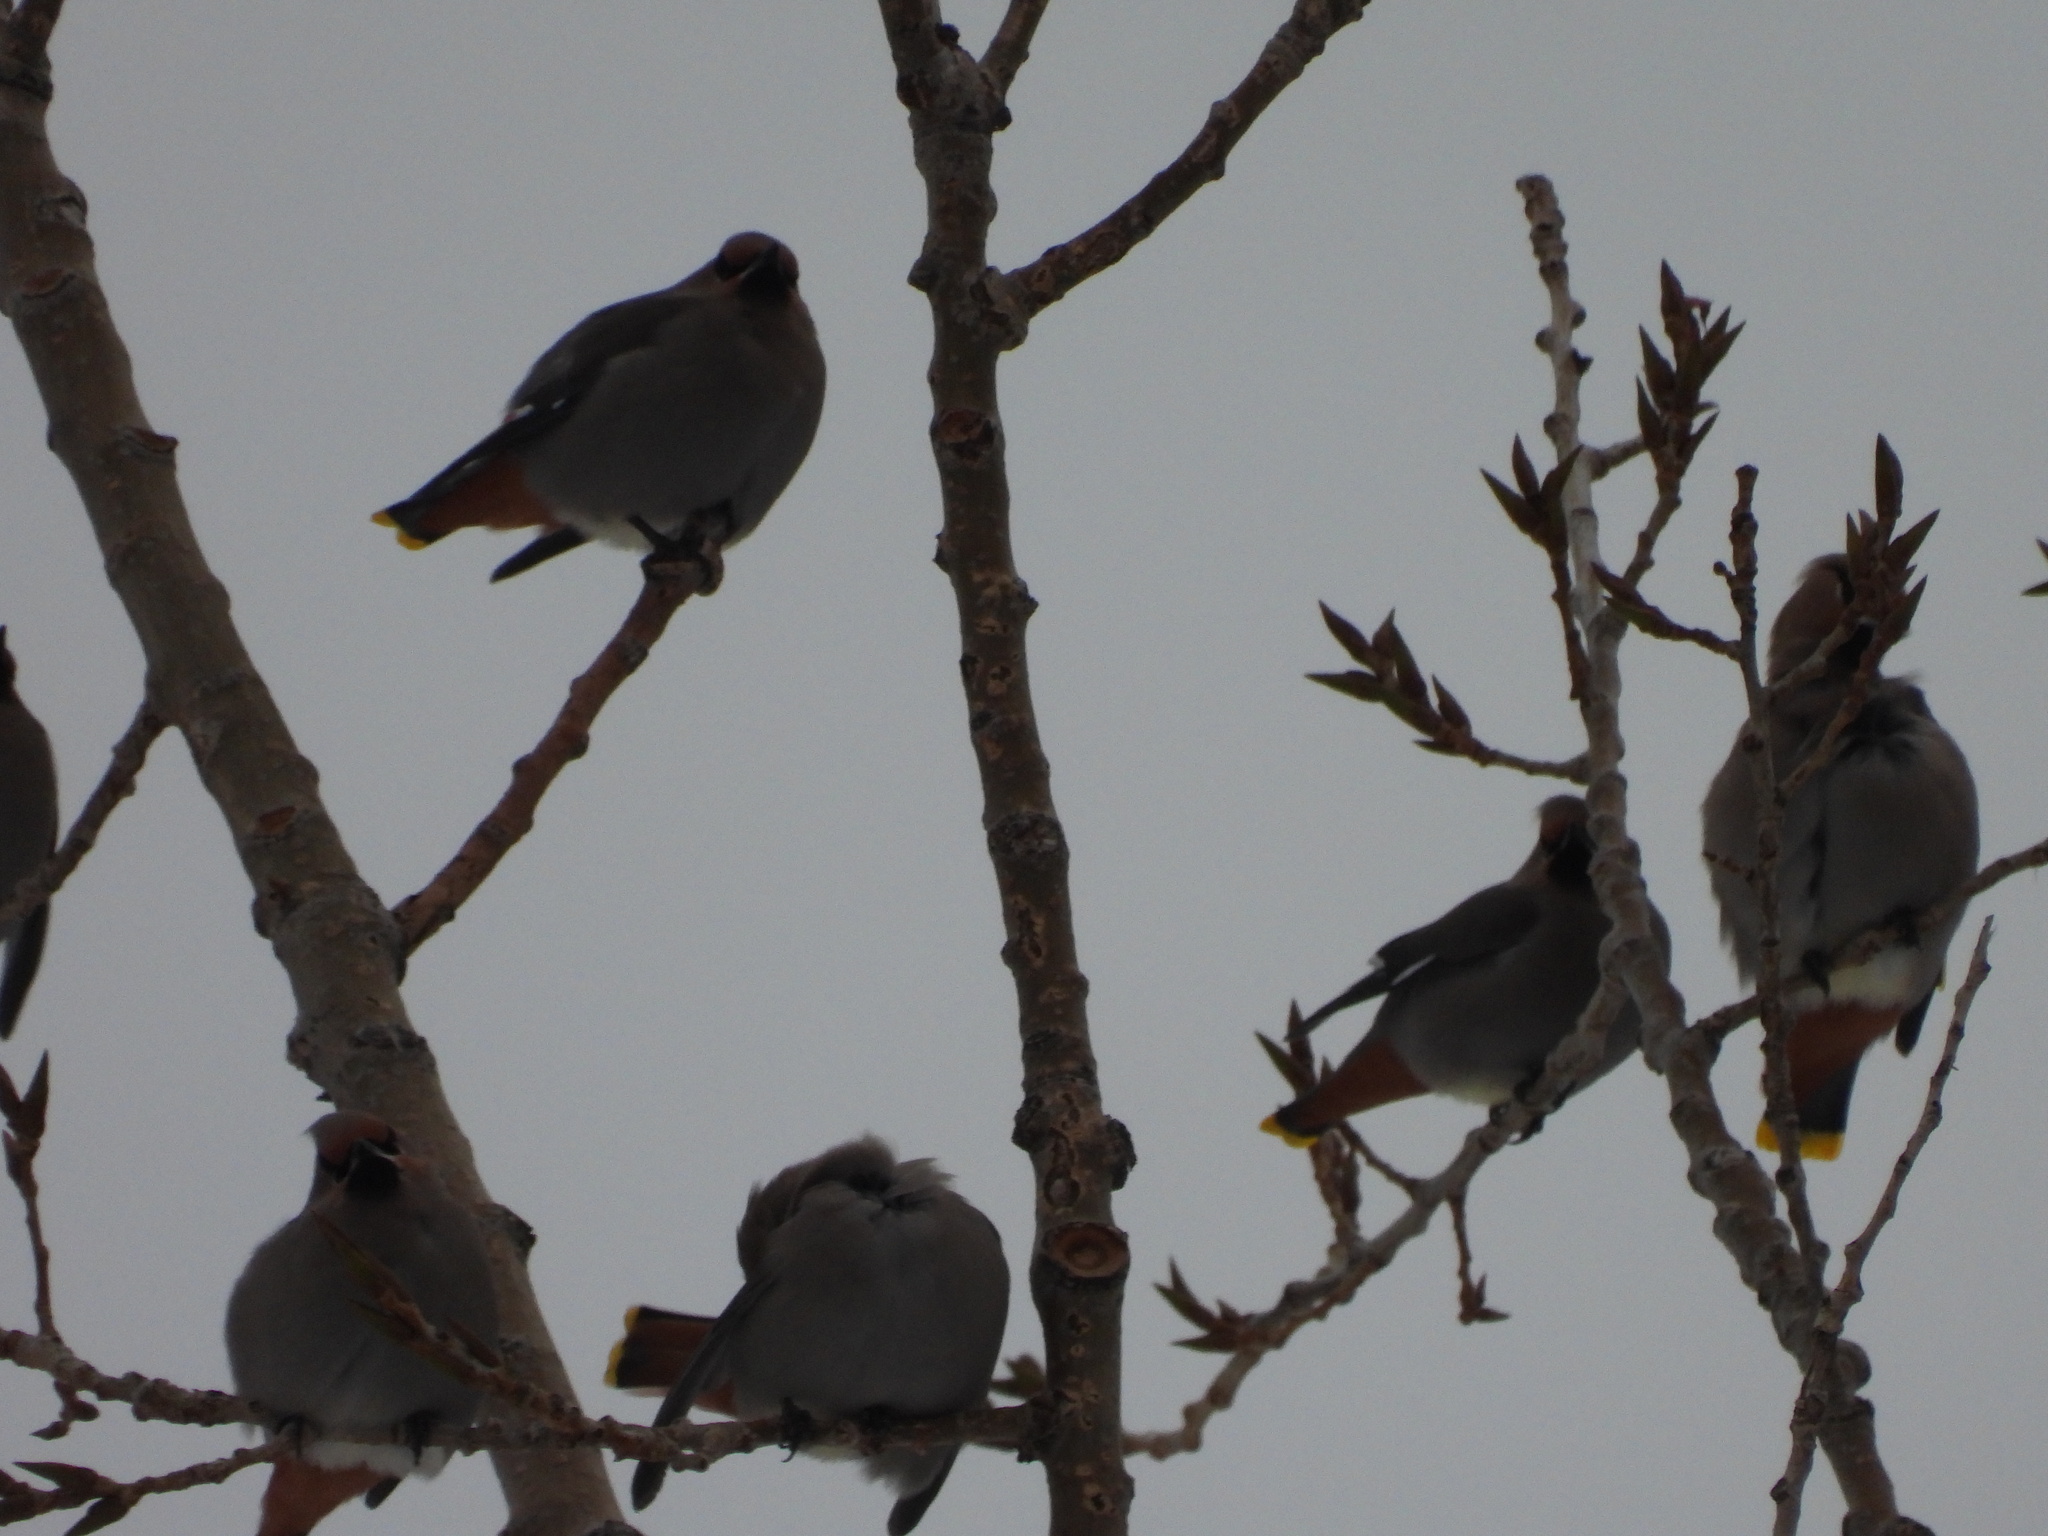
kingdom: Animalia
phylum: Chordata
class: Aves
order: Passeriformes
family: Bombycillidae
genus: Bombycilla
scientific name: Bombycilla garrulus
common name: Bohemian waxwing
